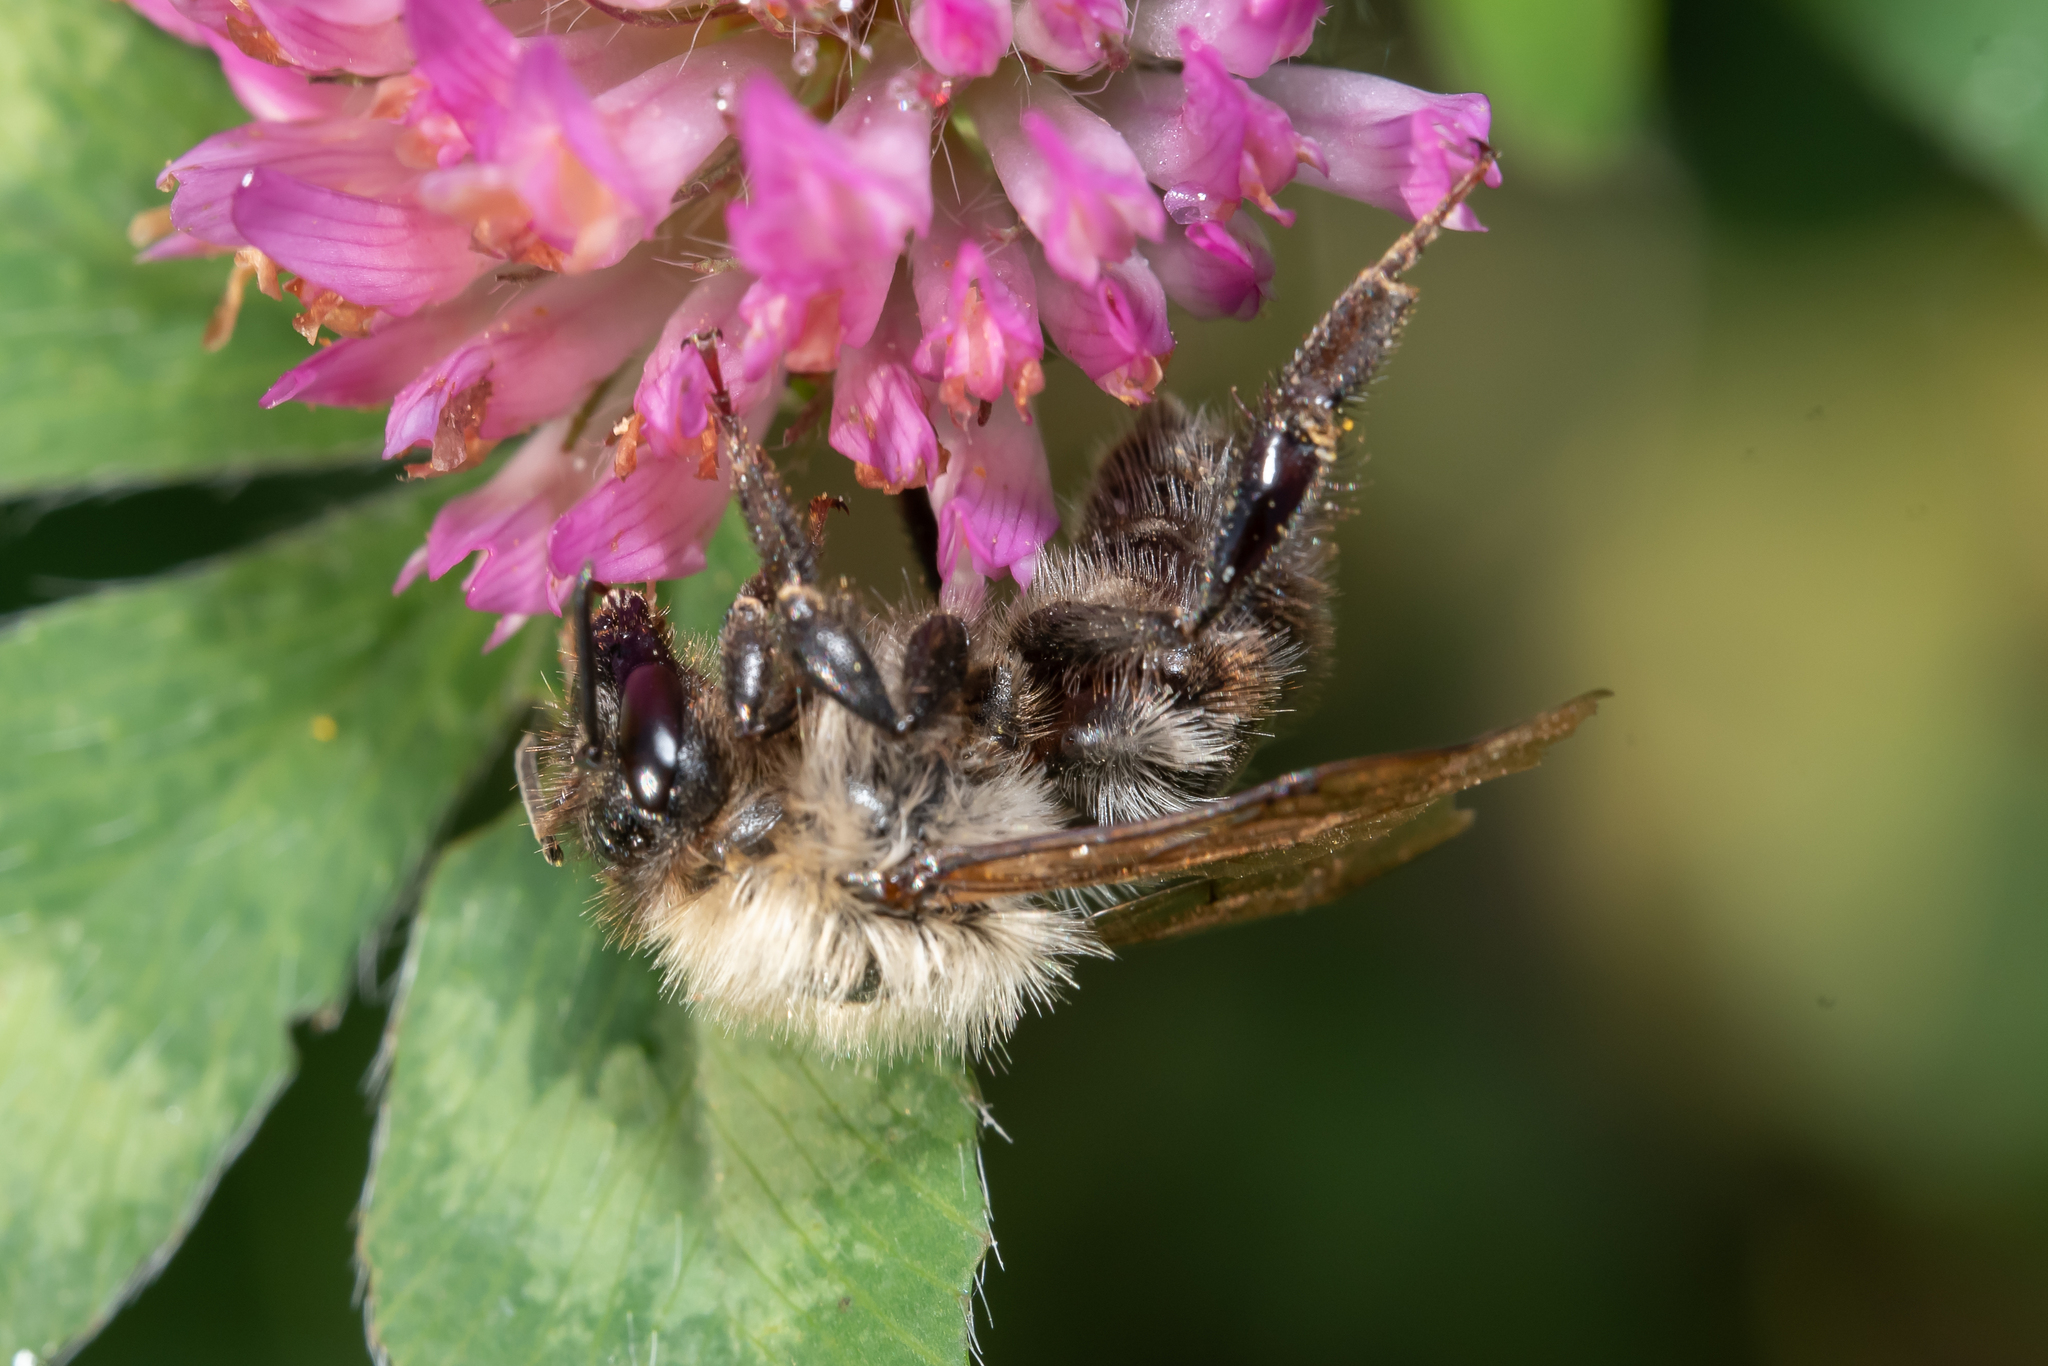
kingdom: Animalia
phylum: Arthropoda
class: Insecta
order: Hymenoptera
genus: Thoracobombus
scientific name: Thoracobombus
